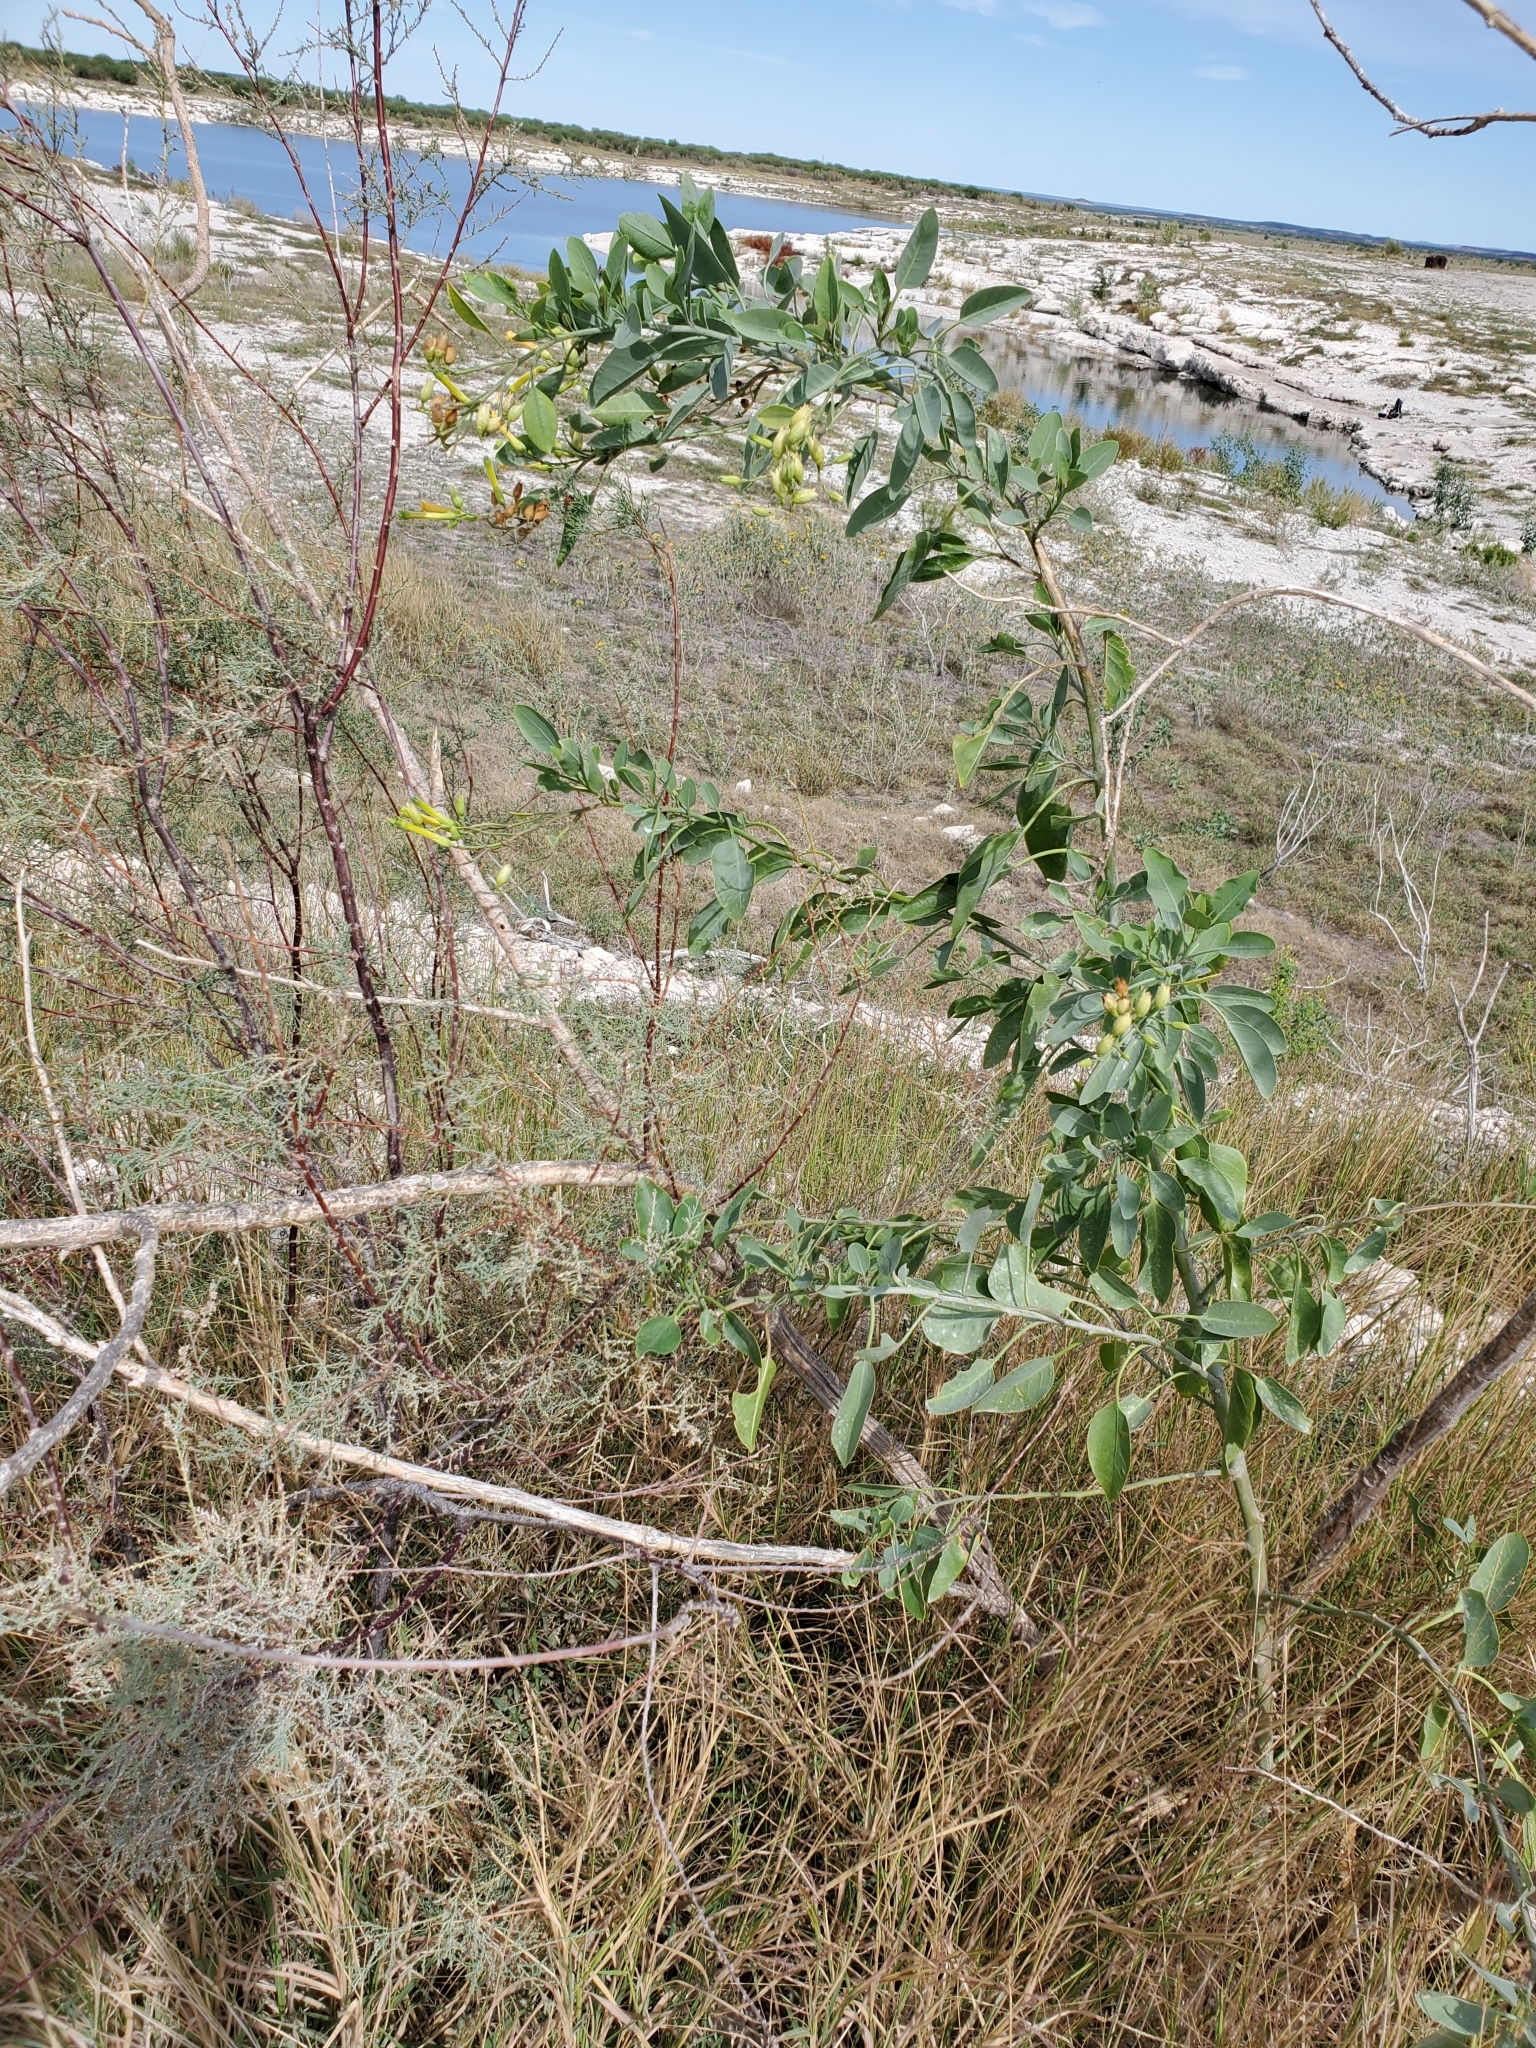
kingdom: Plantae
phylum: Tracheophyta
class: Magnoliopsida
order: Solanales
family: Solanaceae
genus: Nicotiana
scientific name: Nicotiana glauca
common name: Tree tobacco
